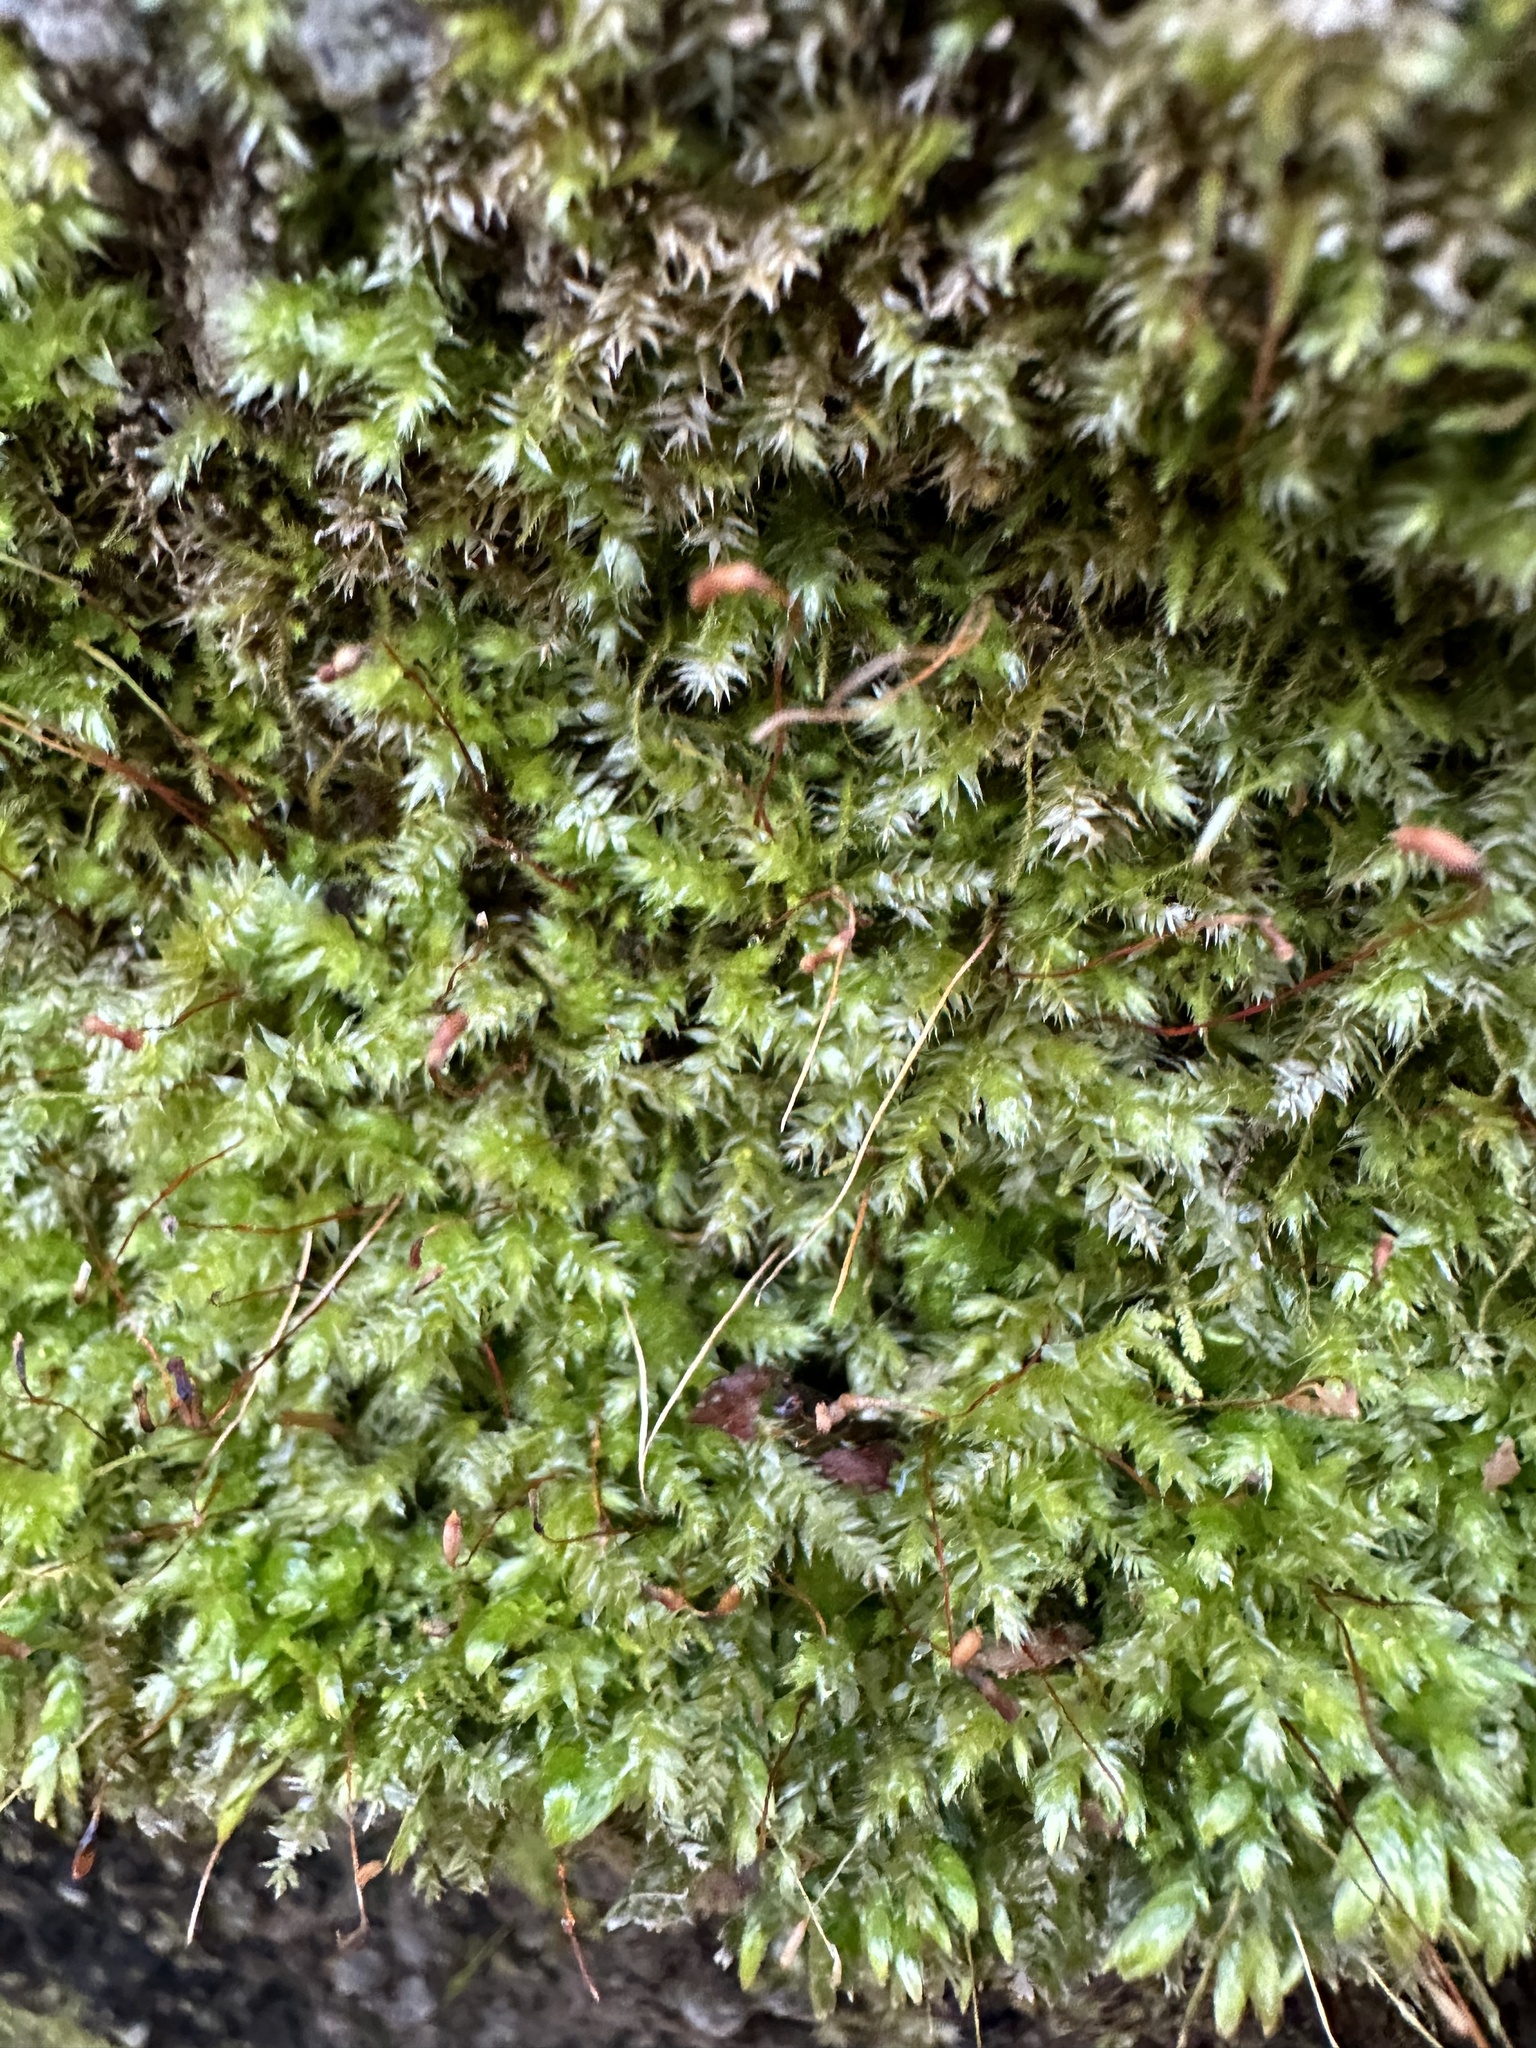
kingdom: Plantae
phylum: Bryophyta
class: Bryopsida
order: Hypnales
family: Plagiotheciaceae
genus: Pseudotaxiphyllum
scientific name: Pseudotaxiphyllum elegans
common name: Elegant silk moss
